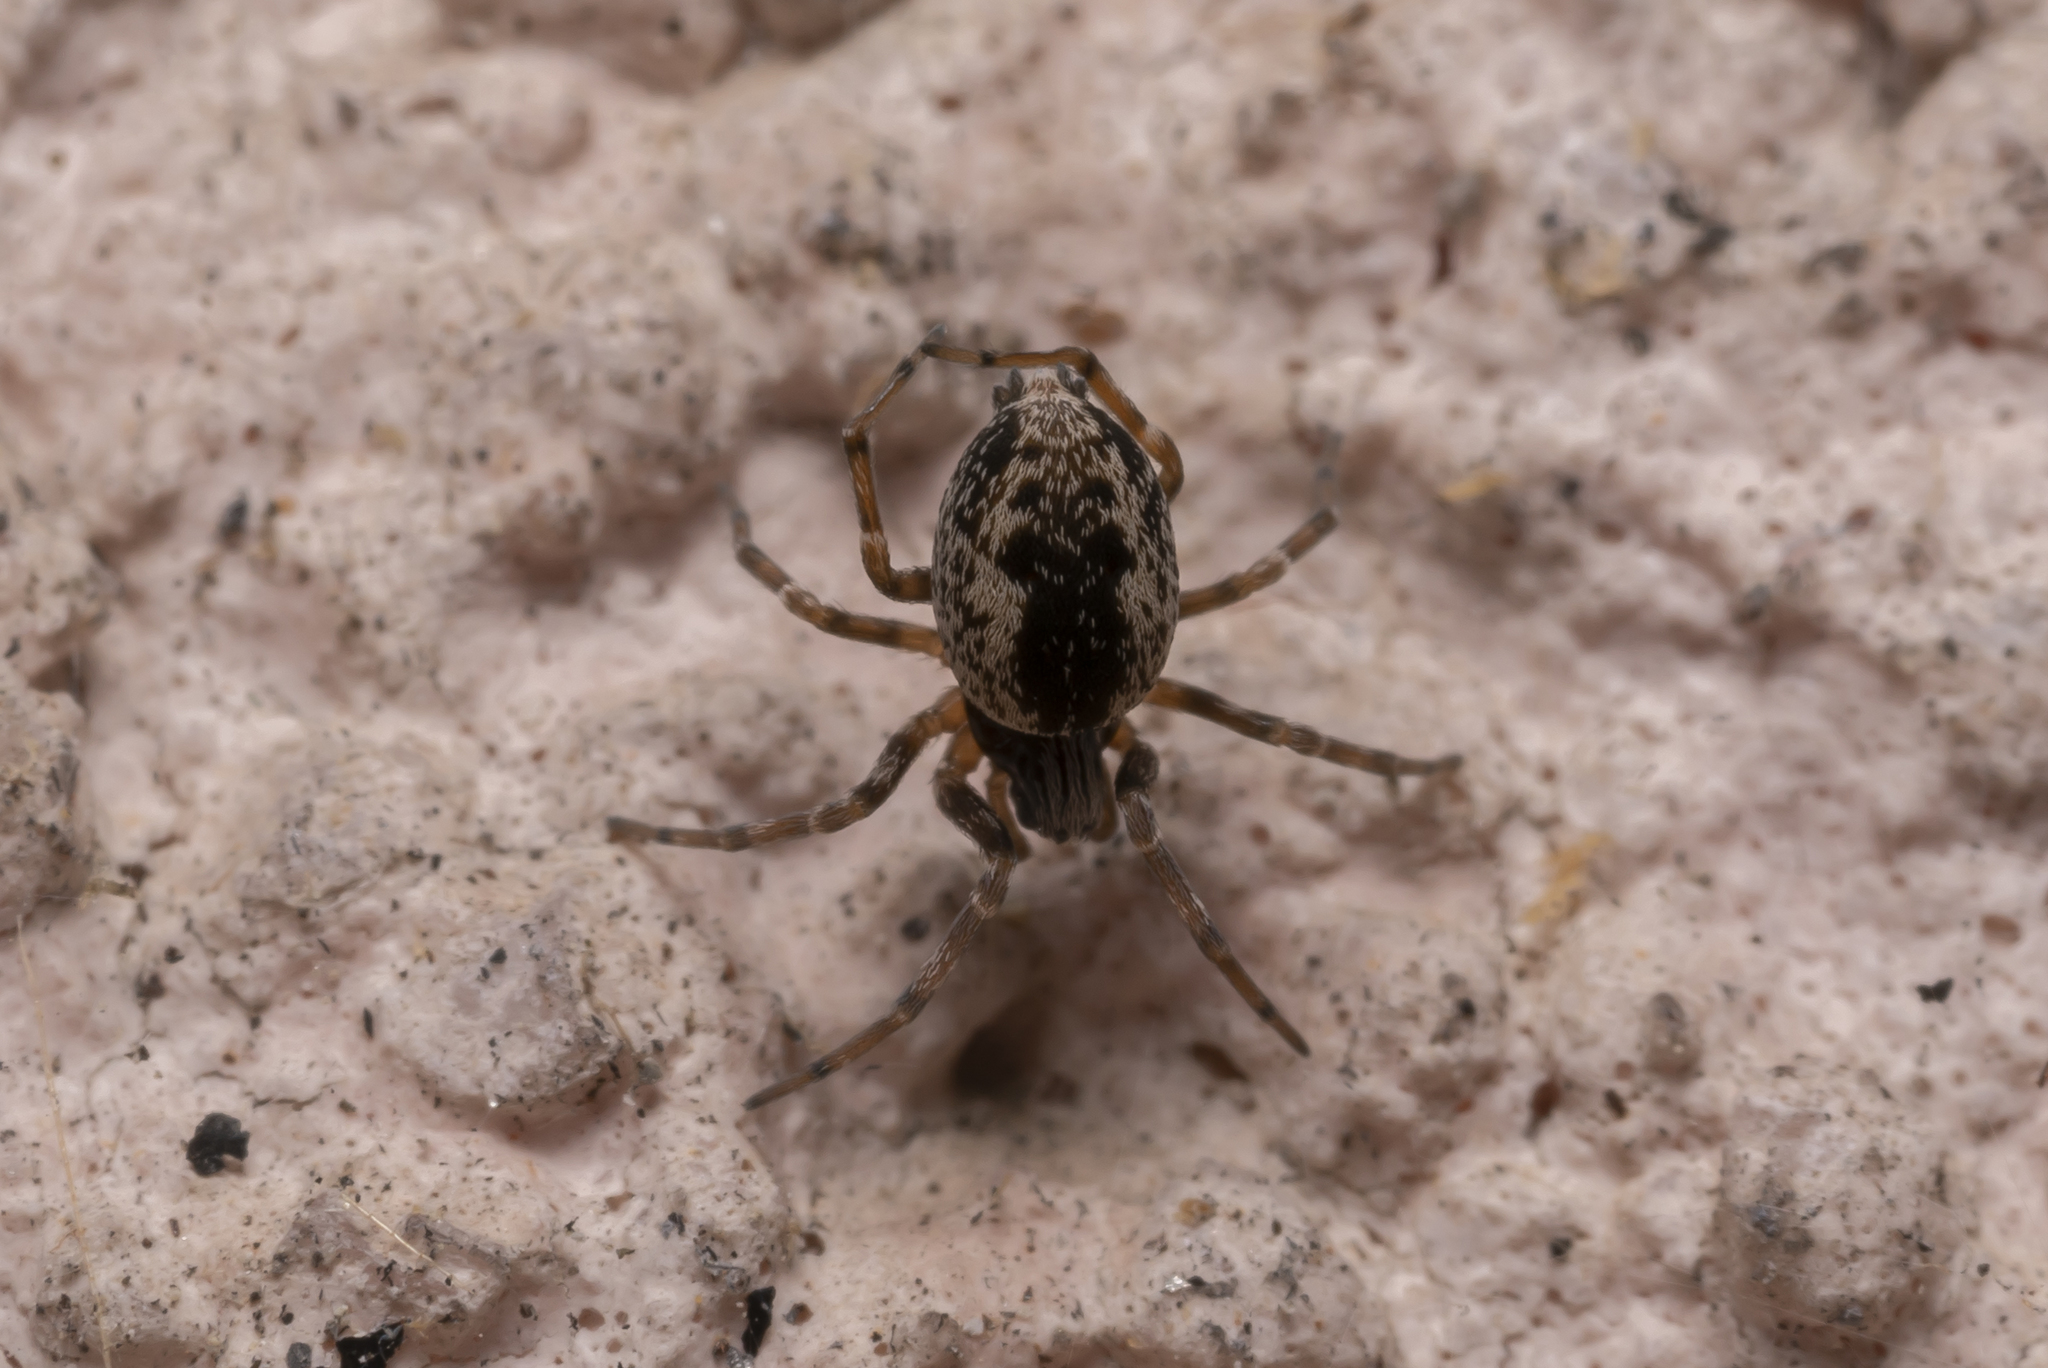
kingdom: Animalia
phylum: Arthropoda
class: Arachnida
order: Araneae
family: Dictynidae
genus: Brigittea
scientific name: Brigittea civica
